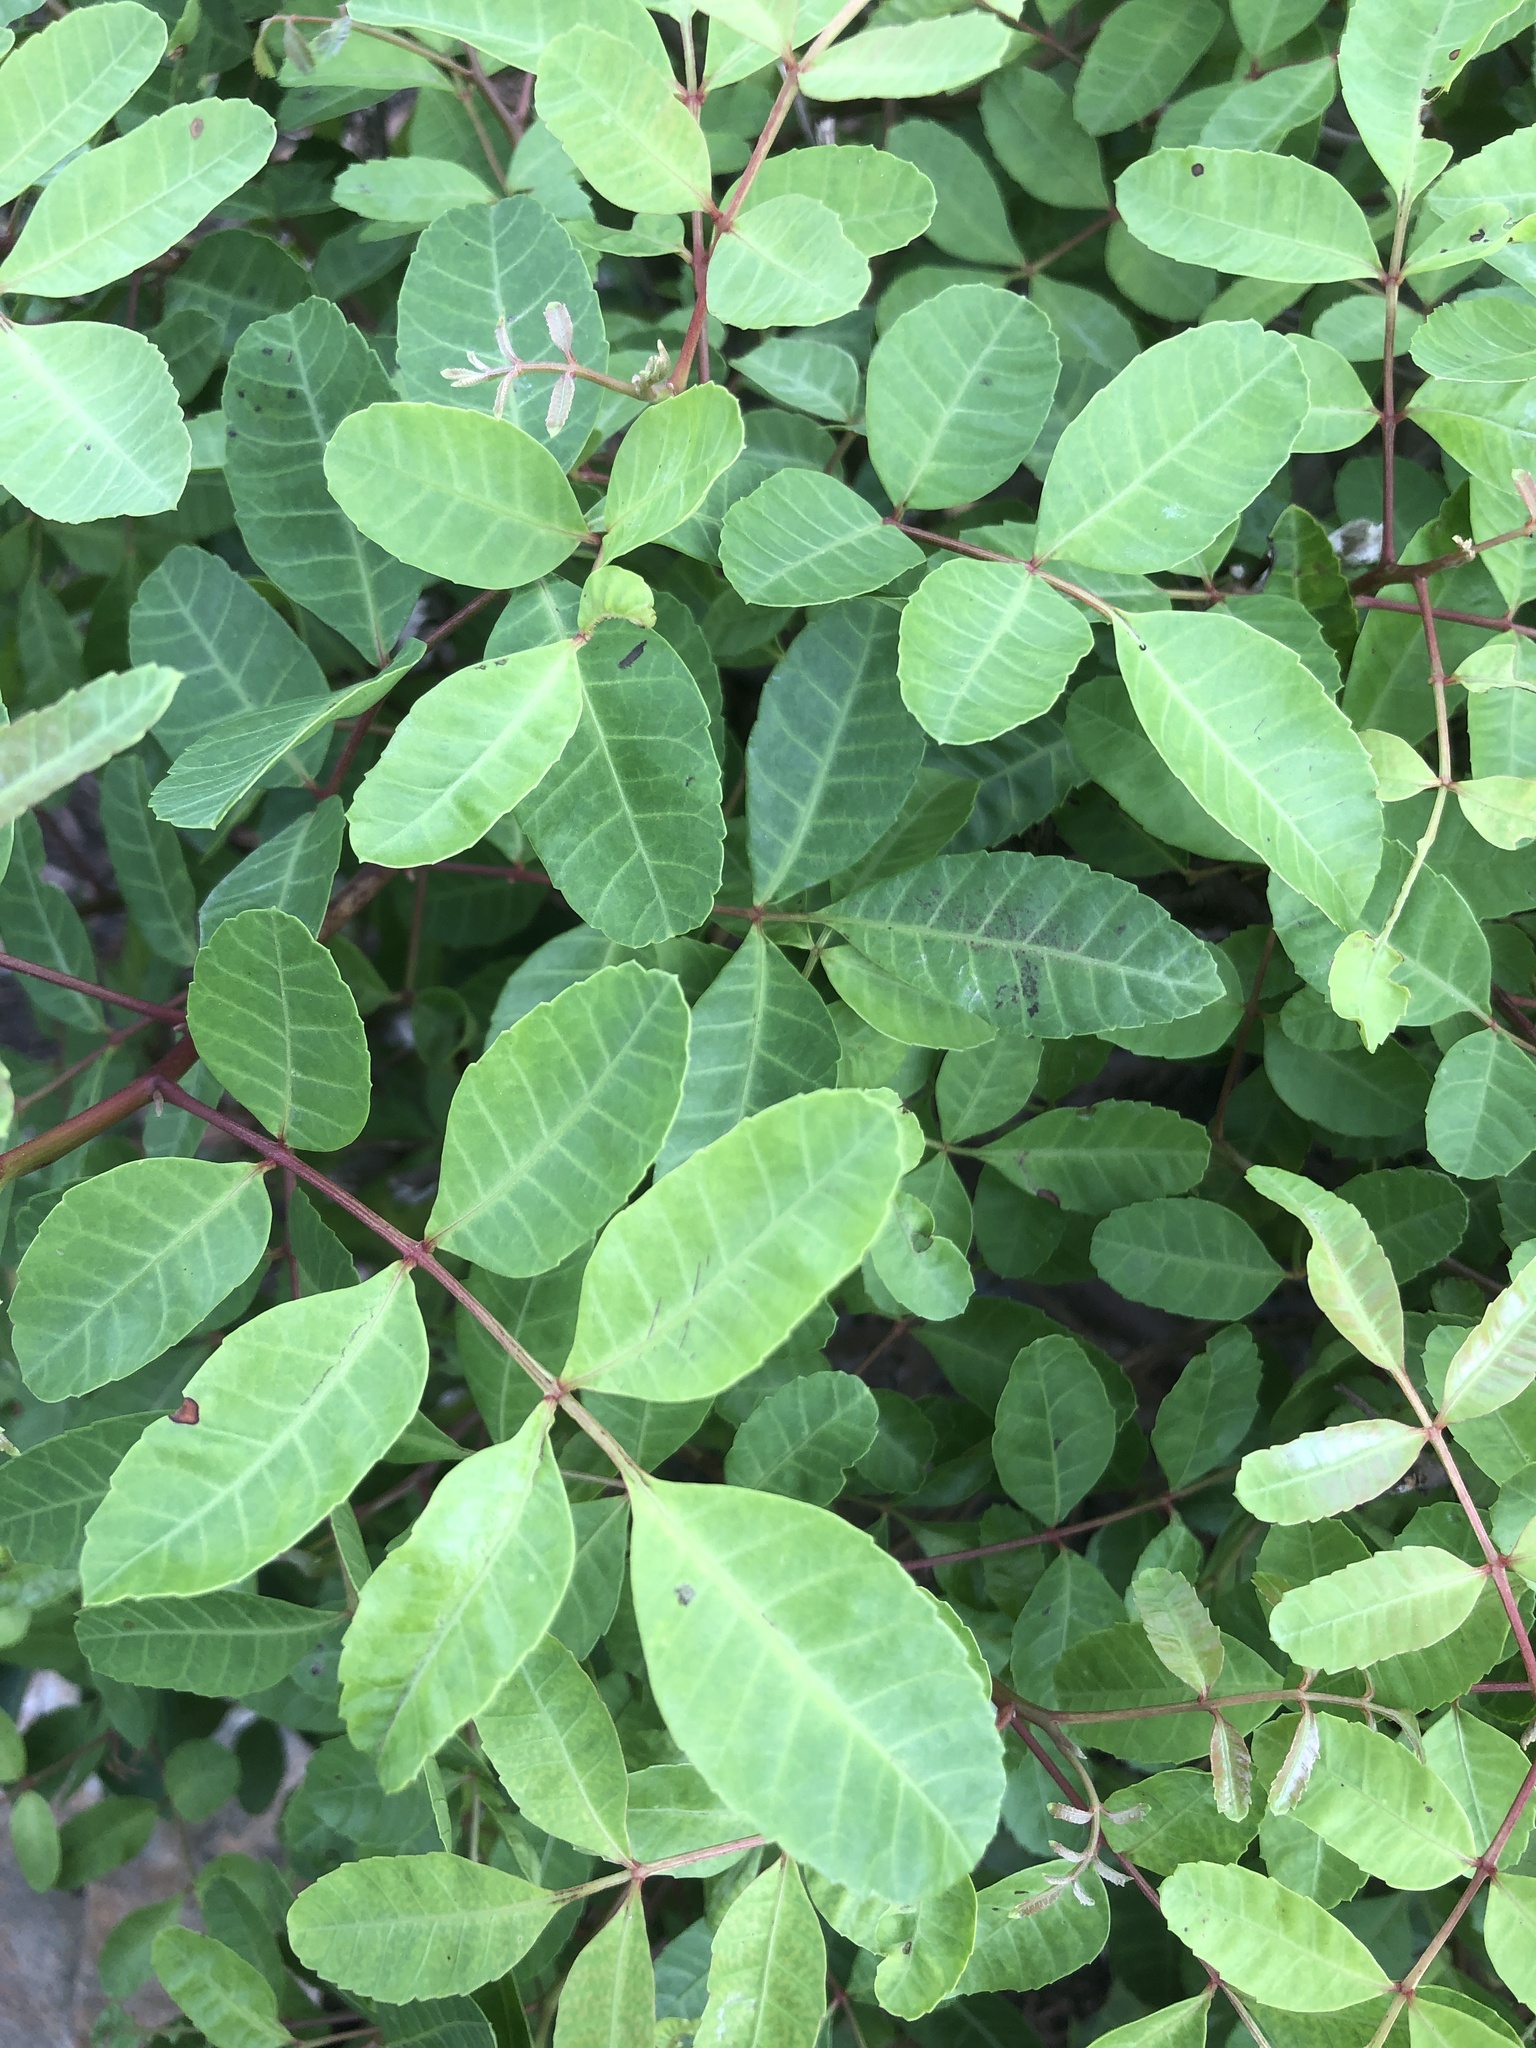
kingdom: Plantae
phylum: Tracheophyta
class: Magnoliopsida
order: Sapindales
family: Anacardiaceae
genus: Schinus
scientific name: Schinus terebinthifolia
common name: Brazilian peppertree
